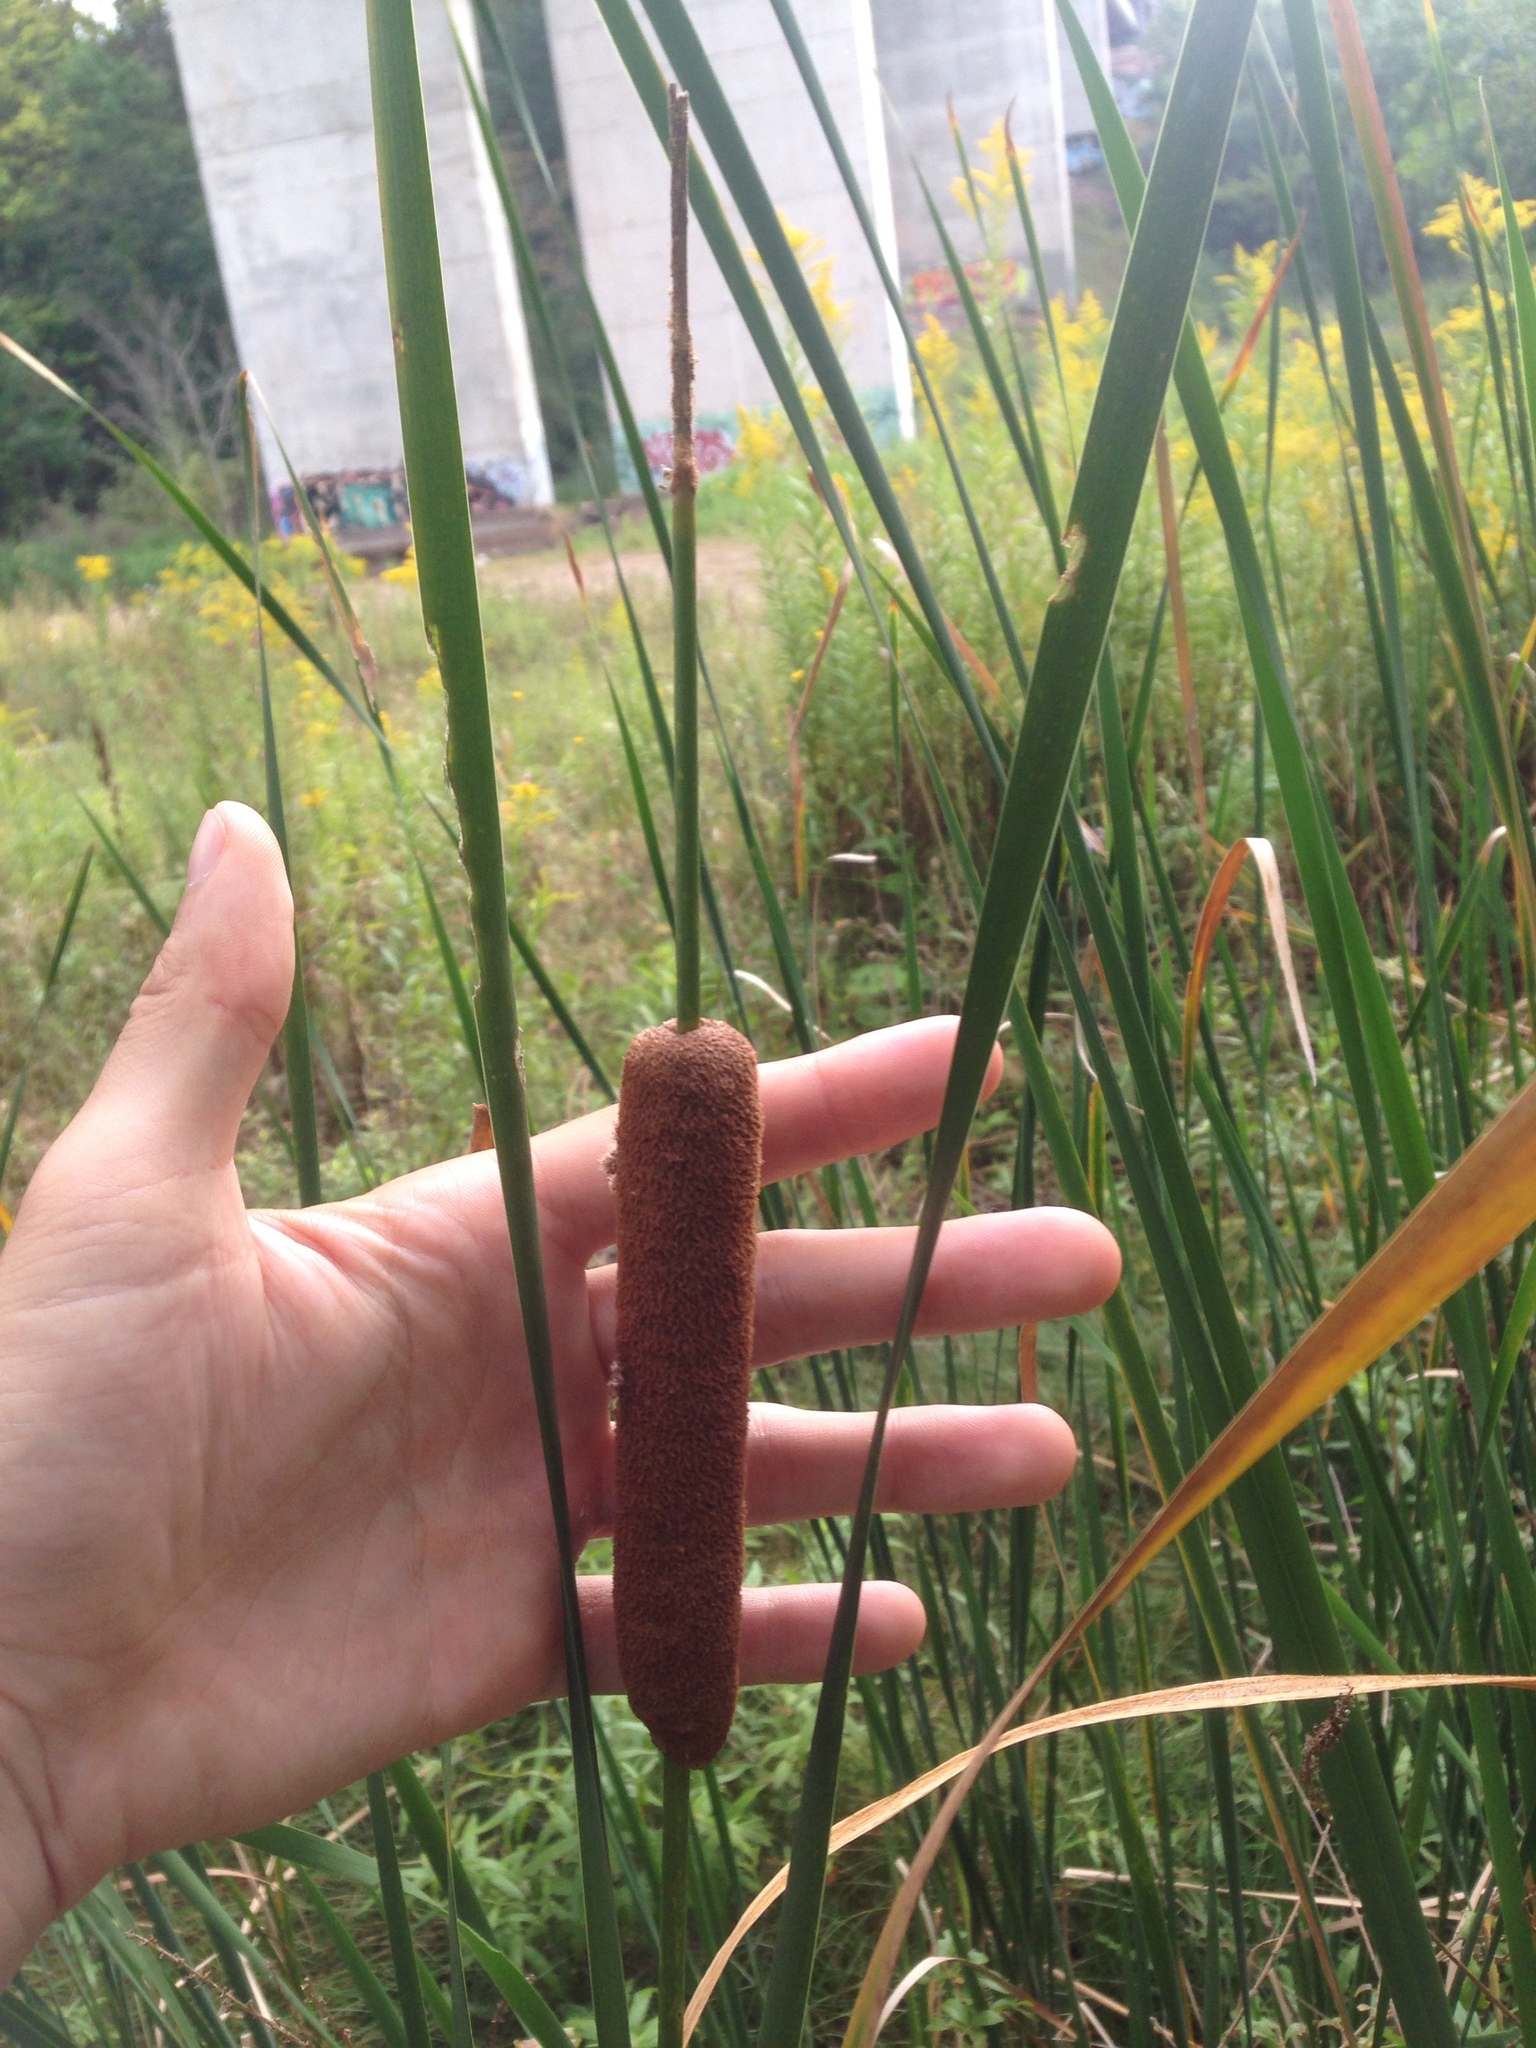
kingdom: Plantae
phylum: Tracheophyta
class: Liliopsida
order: Poales
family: Typhaceae
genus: Typha
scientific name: Typha angustifolia
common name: Lesser bulrush
